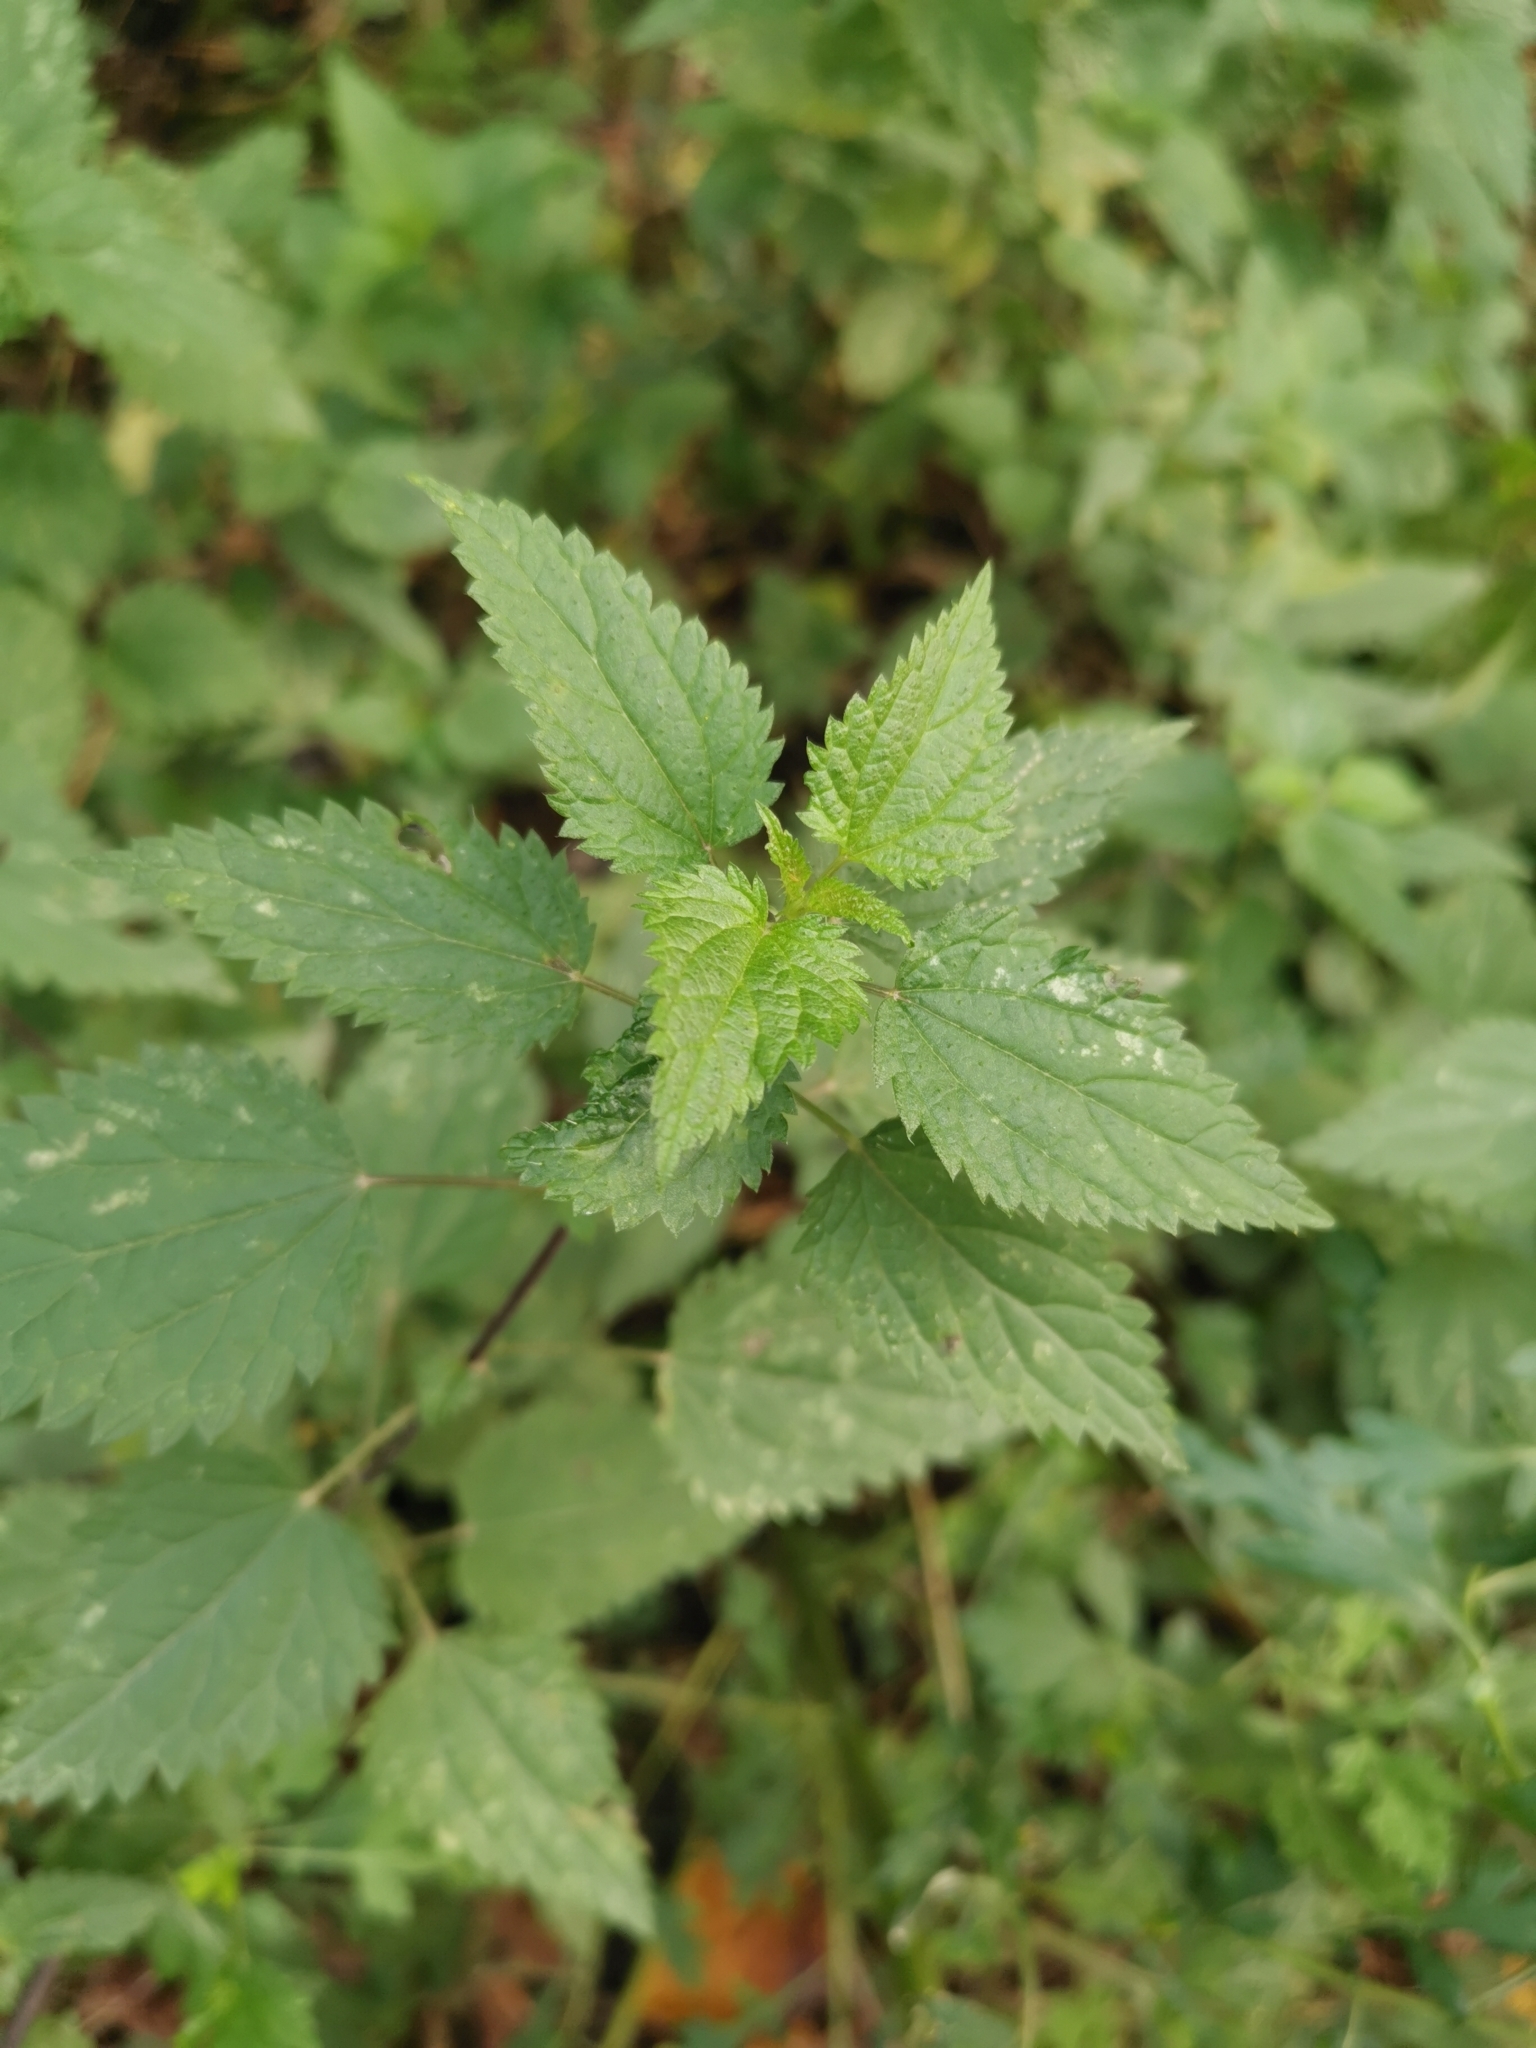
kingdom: Plantae
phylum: Tracheophyta
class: Magnoliopsida
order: Rosales
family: Urticaceae
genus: Urtica
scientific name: Urtica dioica
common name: Common nettle
